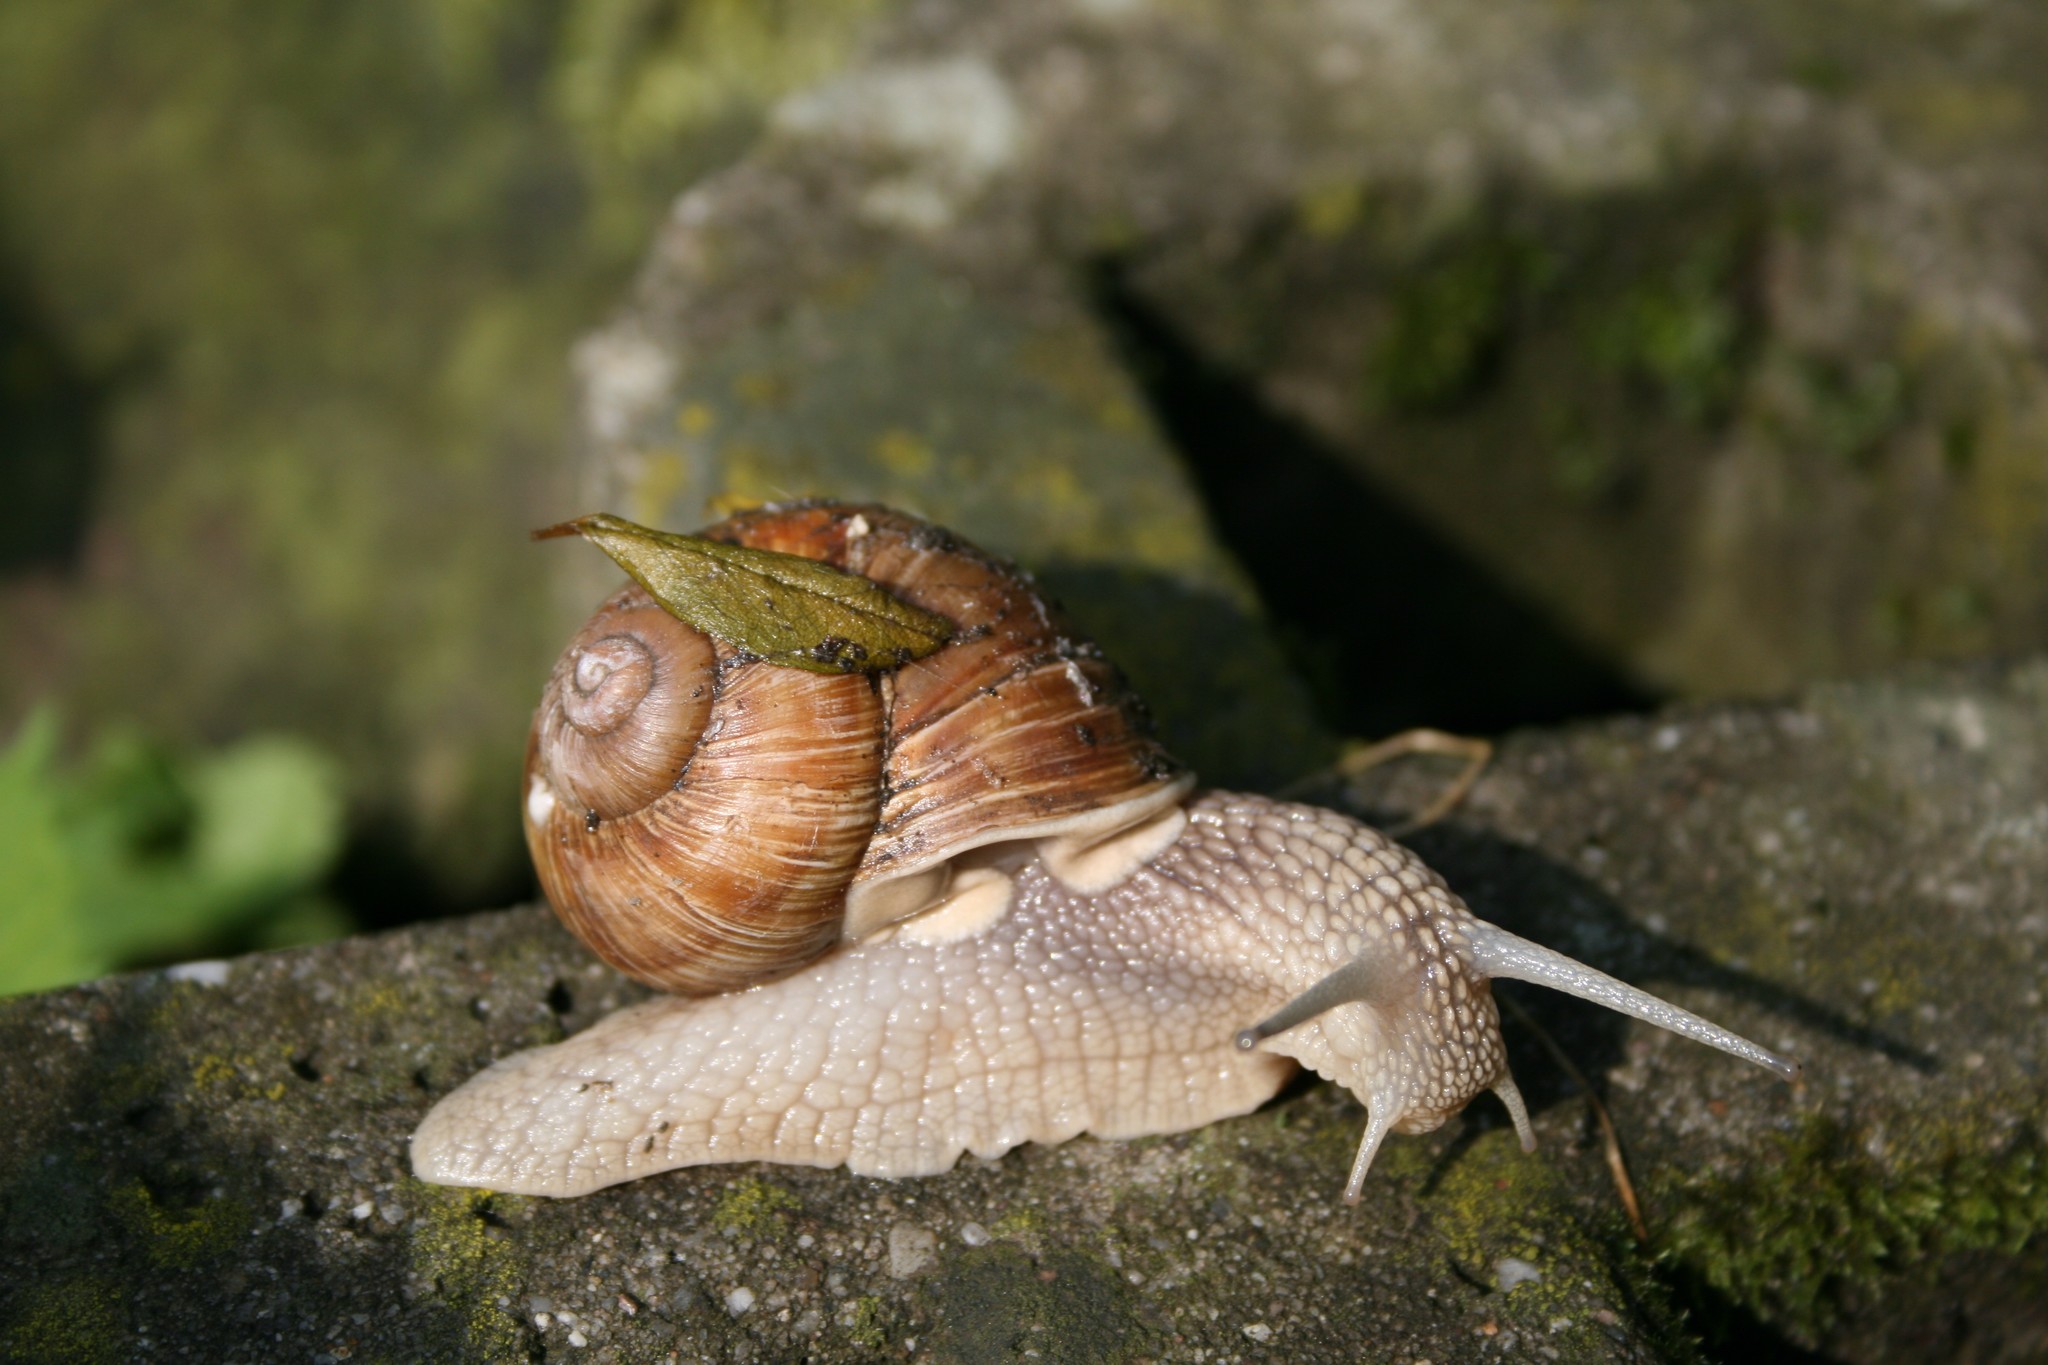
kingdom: Animalia
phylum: Mollusca
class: Gastropoda
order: Stylommatophora
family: Helicidae
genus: Helix
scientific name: Helix pomatia
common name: Roman snail
